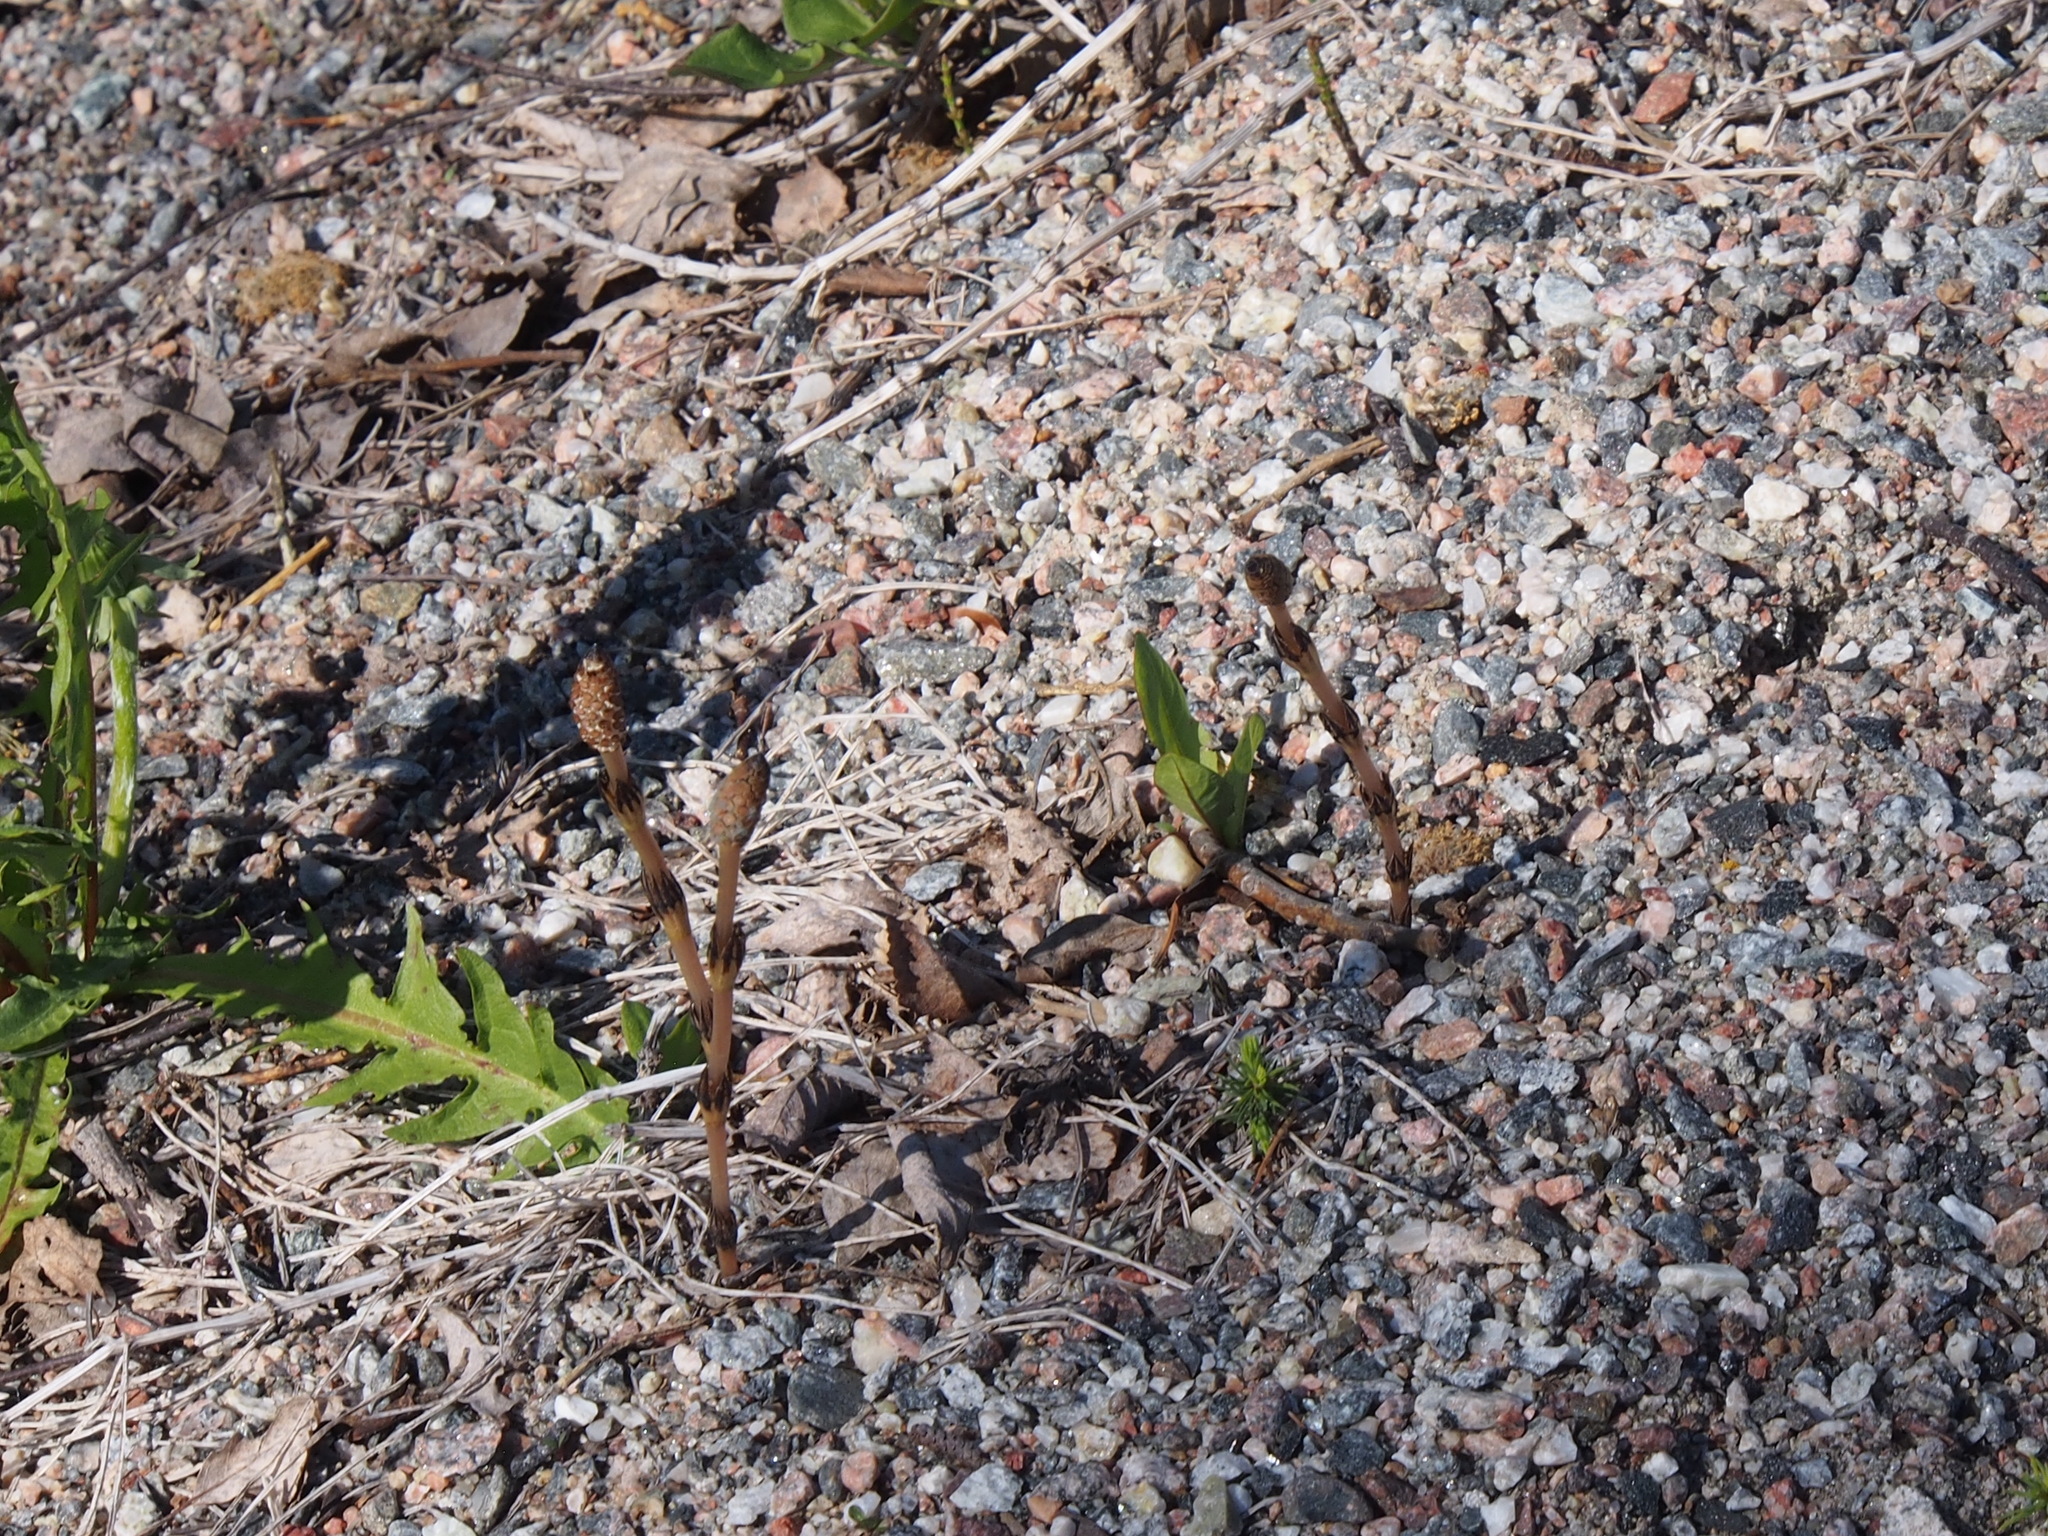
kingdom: Plantae
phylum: Tracheophyta
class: Polypodiopsida
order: Equisetales
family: Equisetaceae
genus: Equisetum
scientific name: Equisetum arvense
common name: Field horsetail
